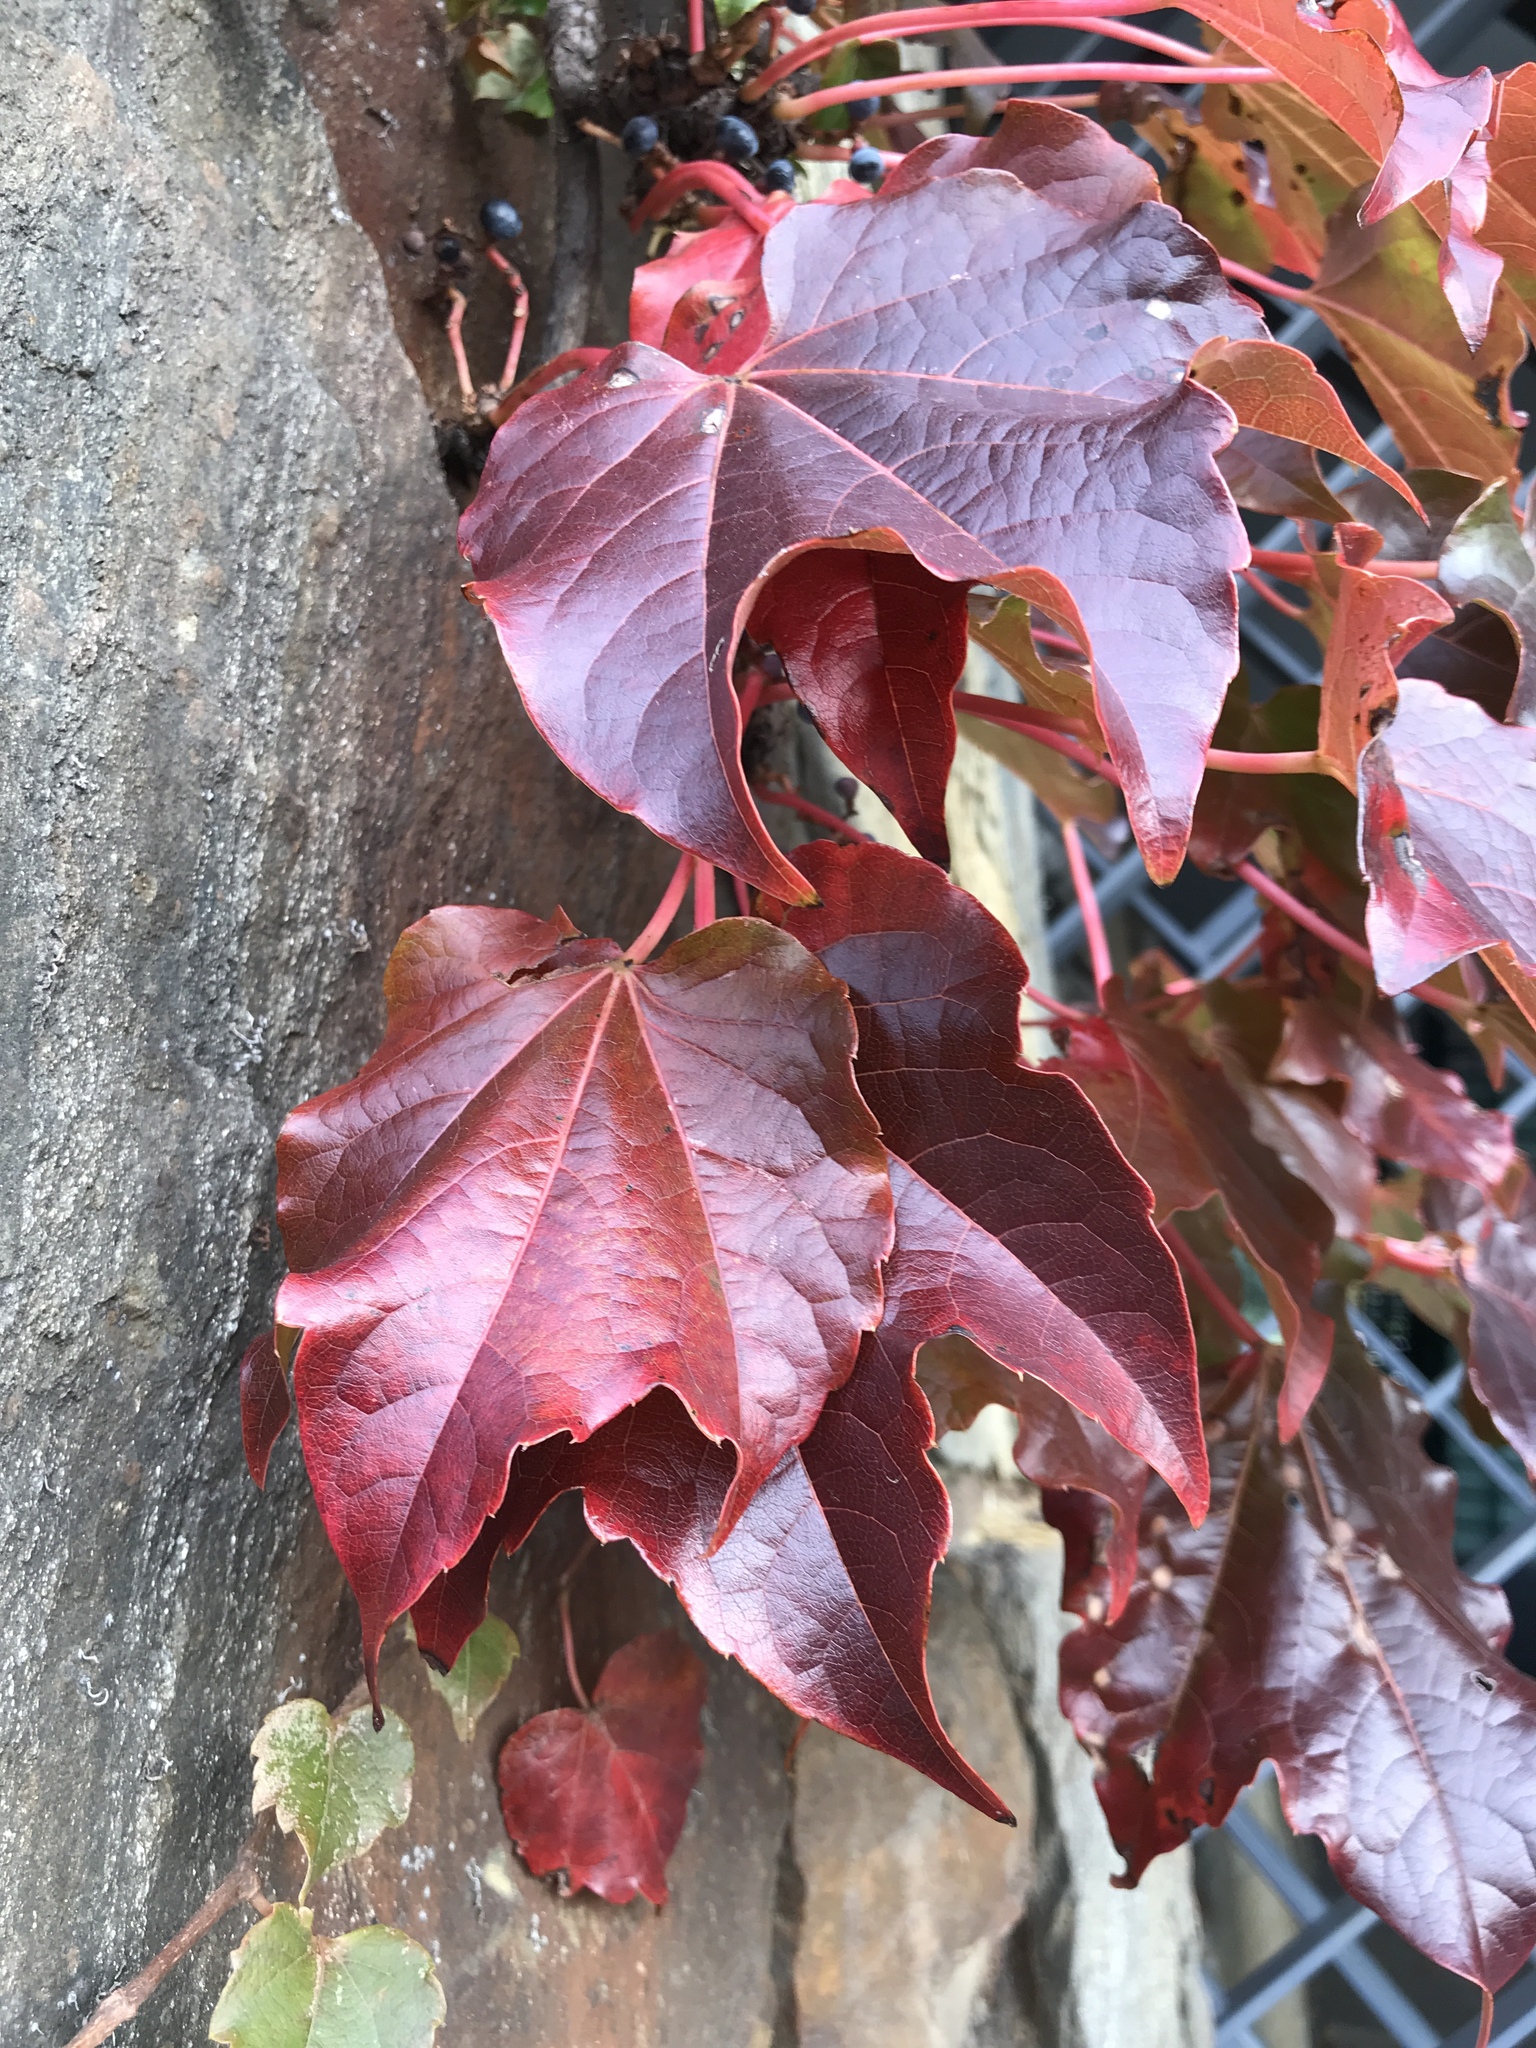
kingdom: Plantae
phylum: Tracheophyta
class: Magnoliopsida
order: Vitales
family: Vitaceae
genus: Parthenocissus
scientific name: Parthenocissus tricuspidata
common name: Boston ivy
